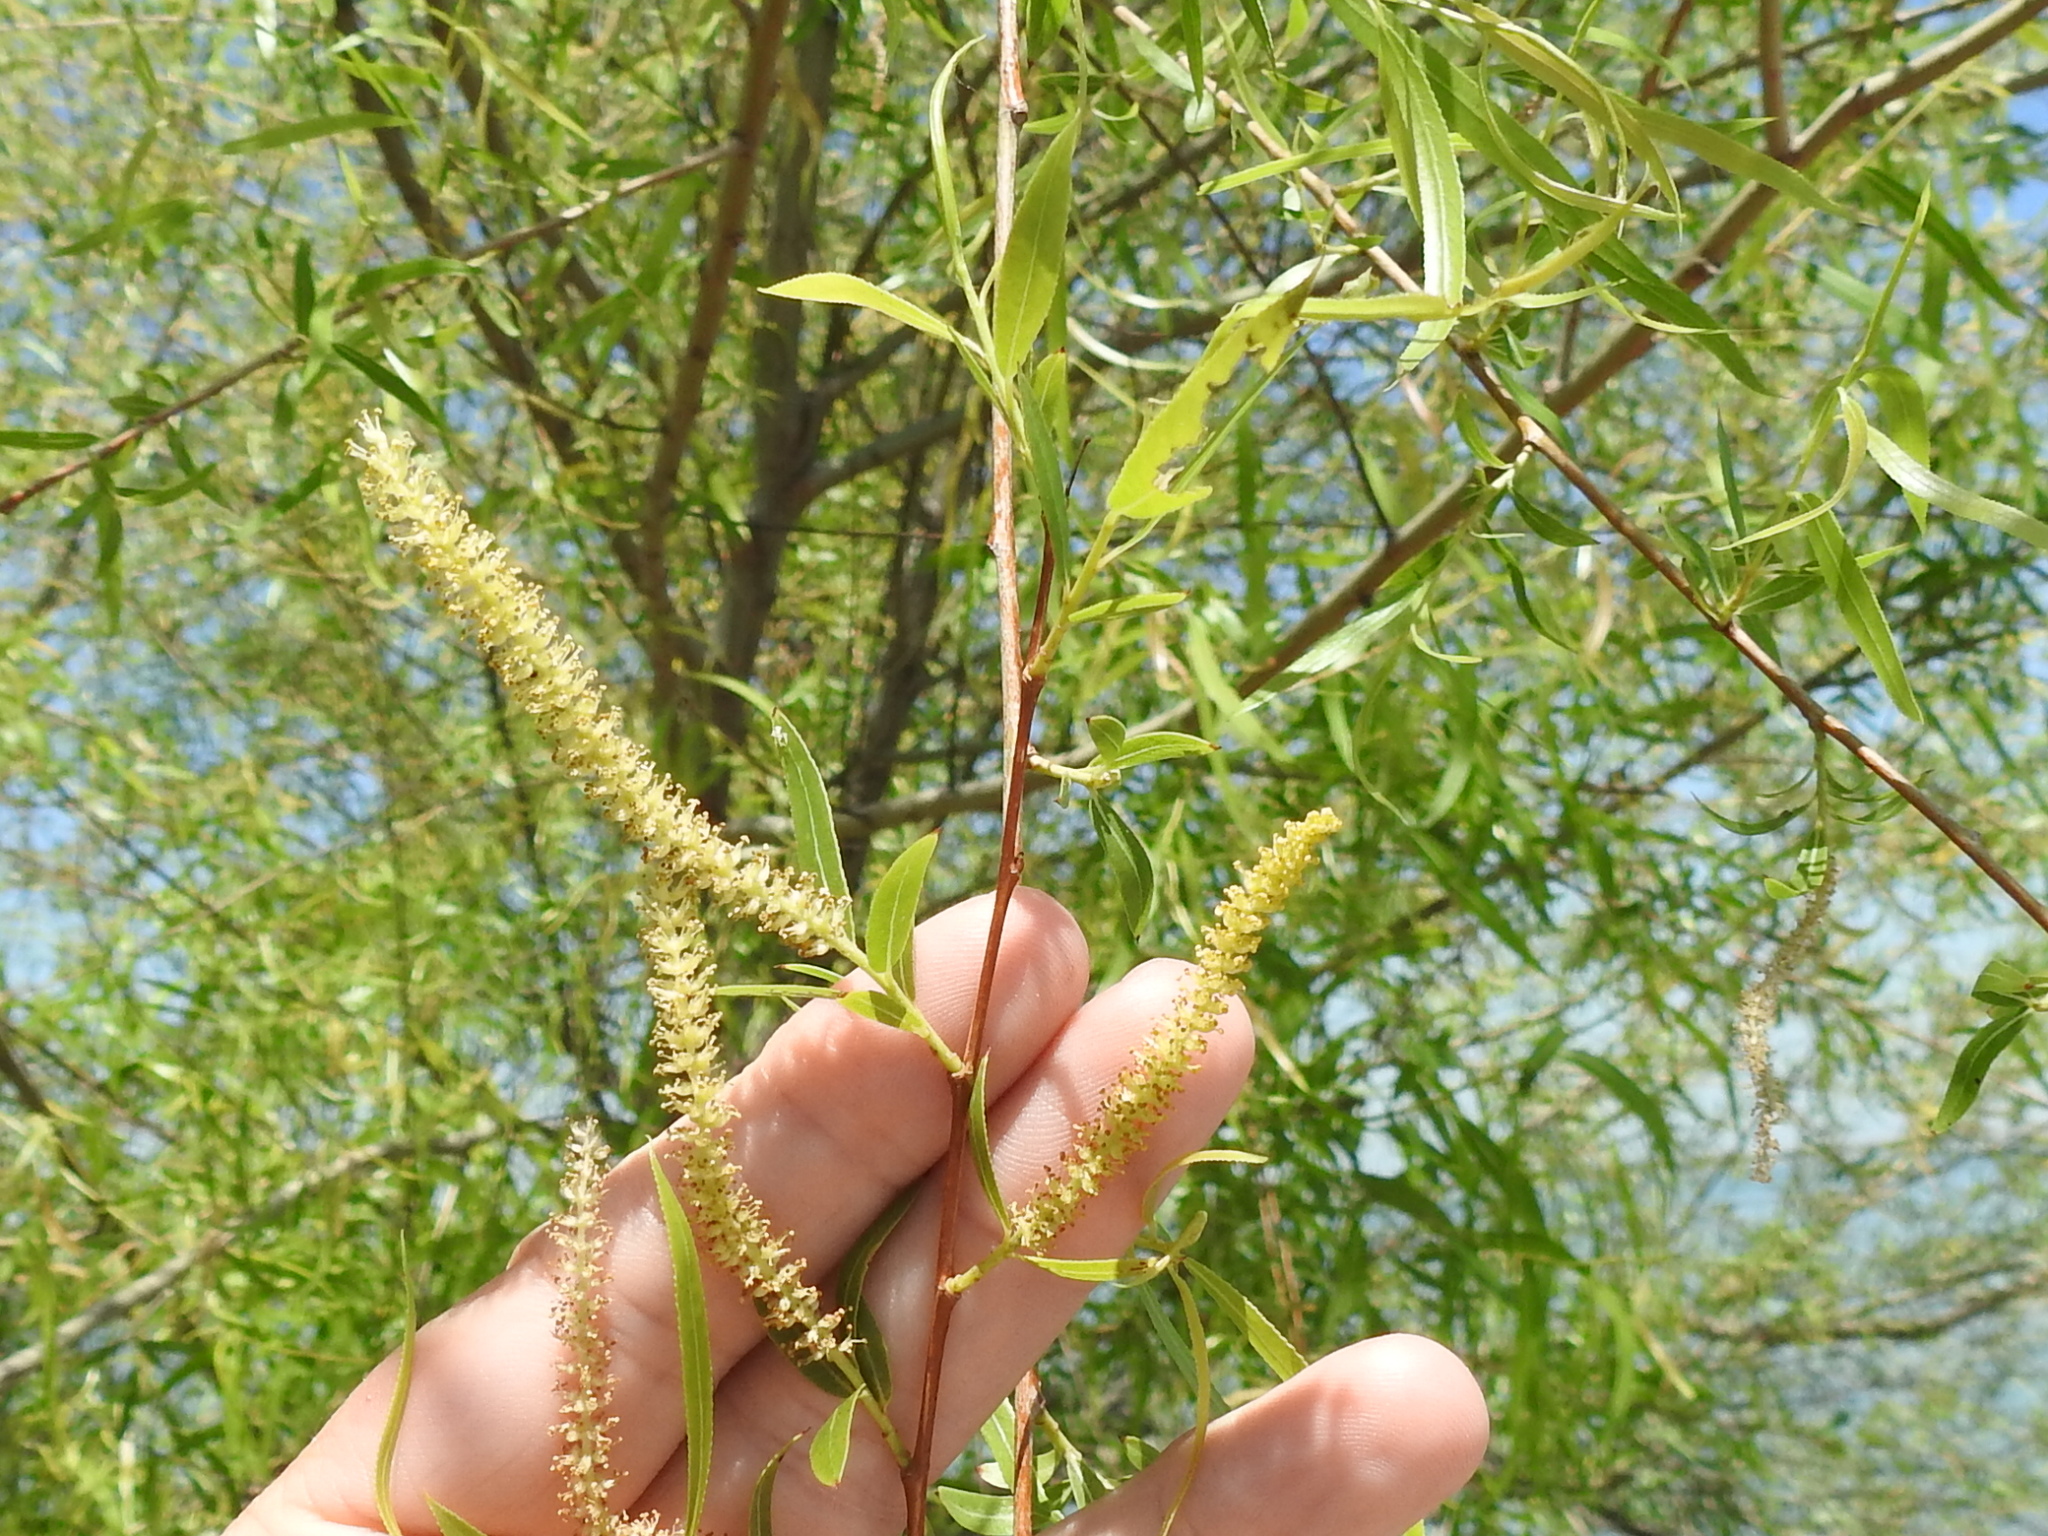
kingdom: Plantae
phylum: Tracheophyta
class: Magnoliopsida
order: Malpighiales
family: Salicaceae
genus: Salix
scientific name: Salix nigra
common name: Black willow
